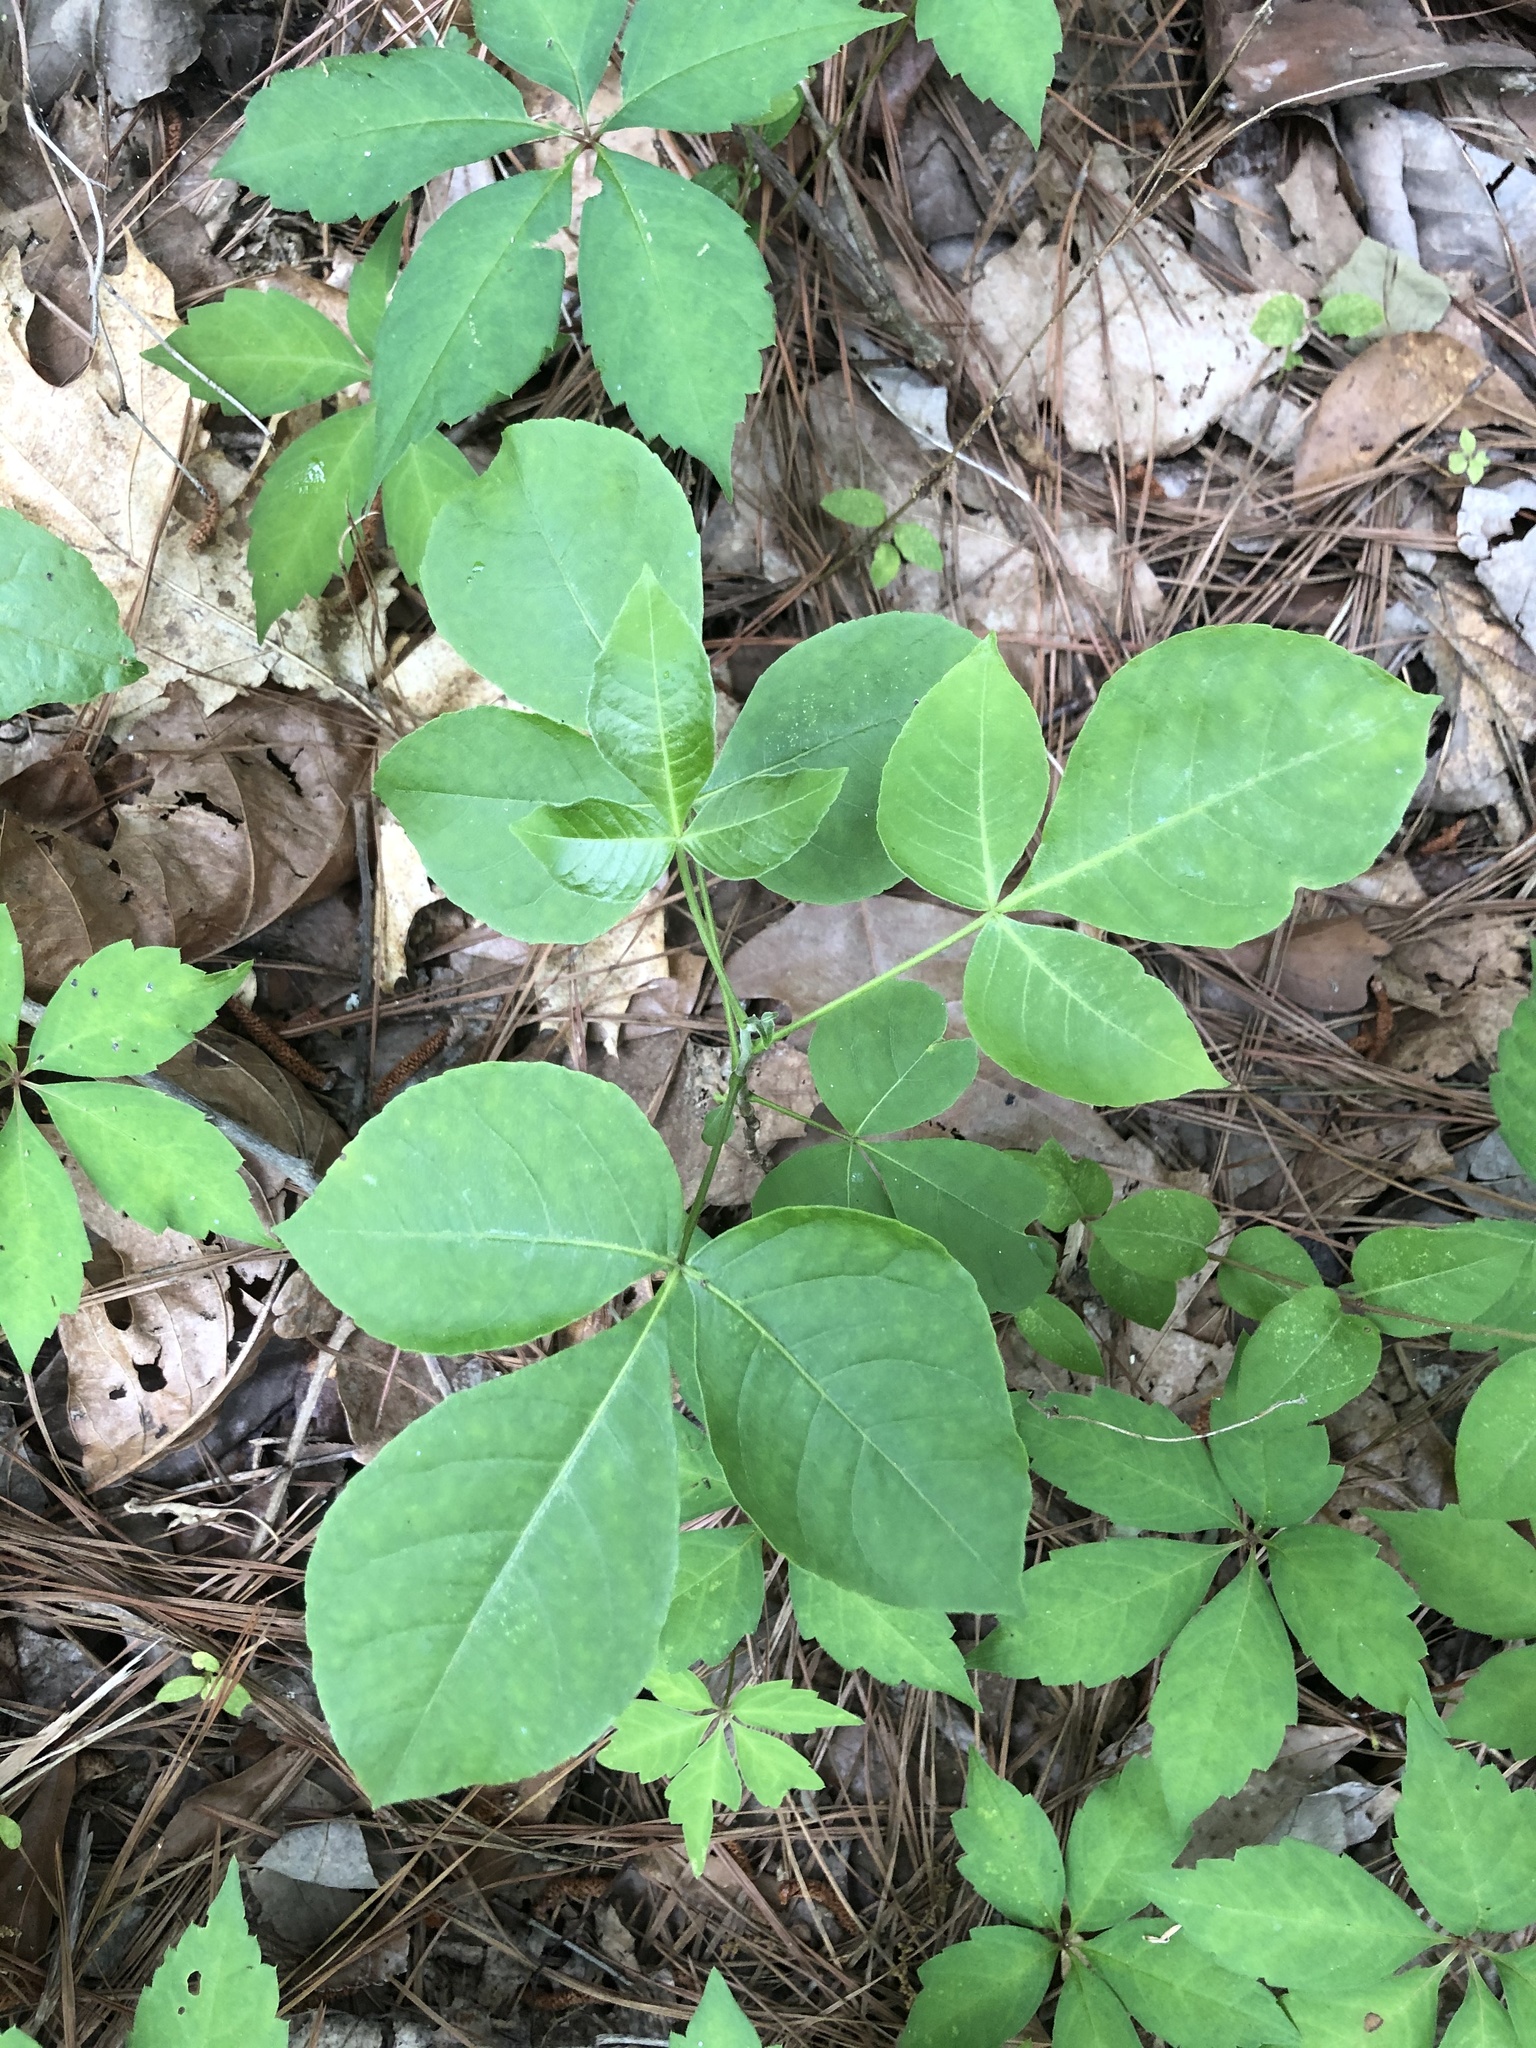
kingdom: Plantae
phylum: Tracheophyta
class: Magnoliopsida
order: Sapindales
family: Rutaceae
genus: Ptelea
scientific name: Ptelea trifoliata
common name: Common hop-tree
